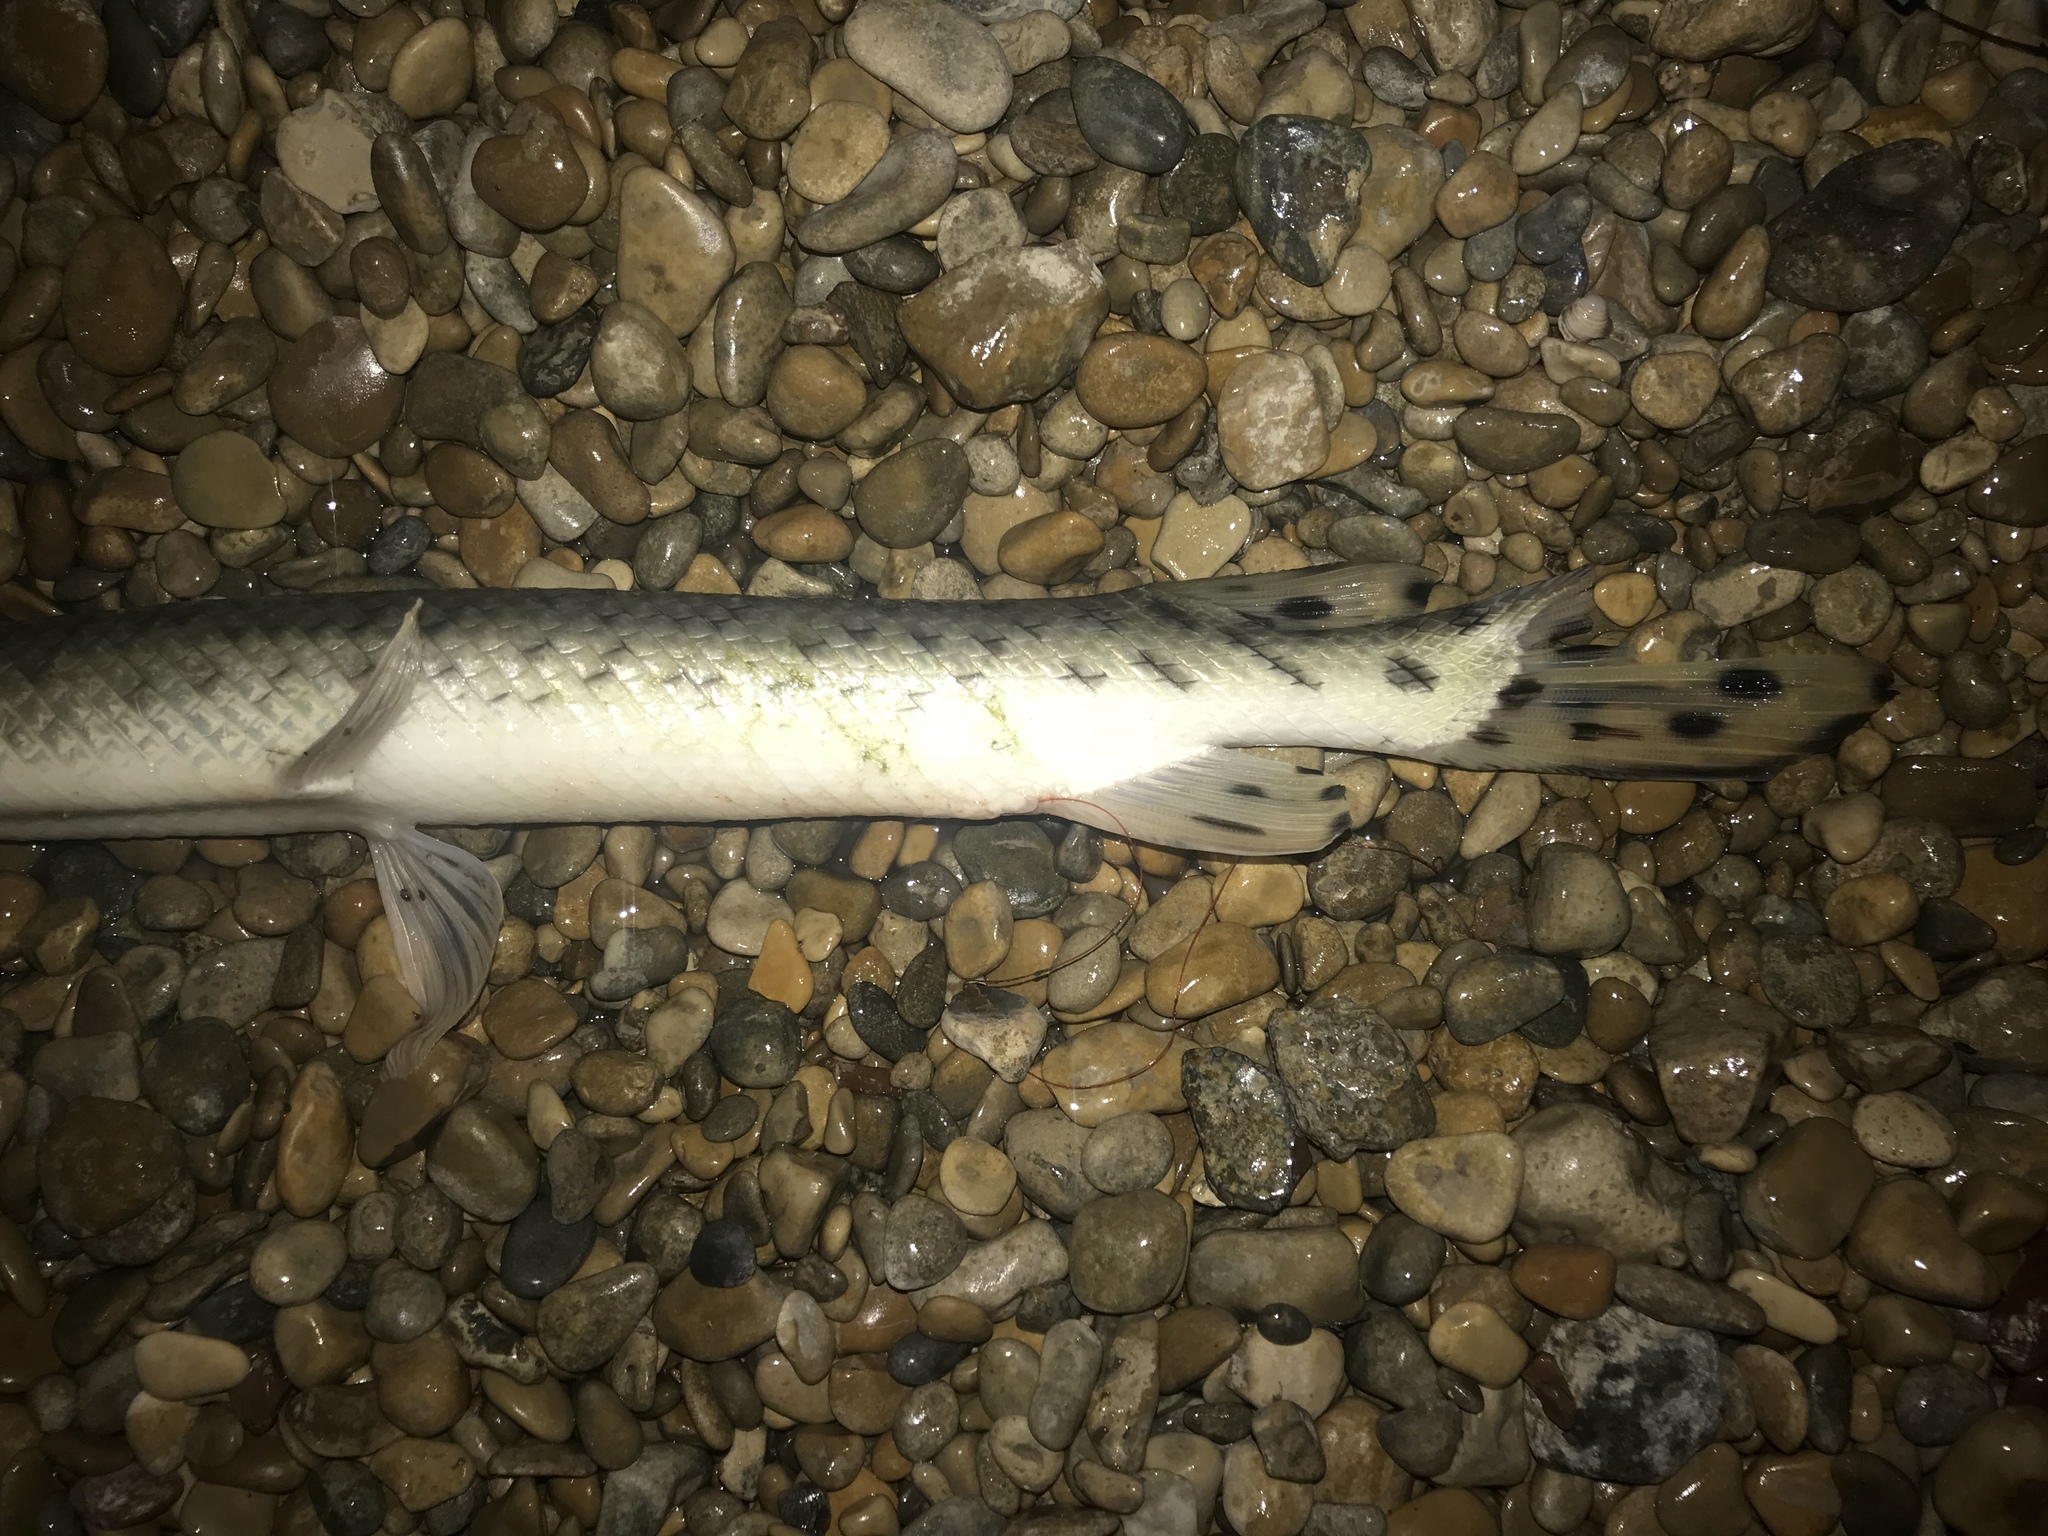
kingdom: Animalia
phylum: Chordata
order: Lepisosteiformes
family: Lepisosteidae
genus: Lepisosteus
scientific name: Lepisosteus osseus
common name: Longnose gar
